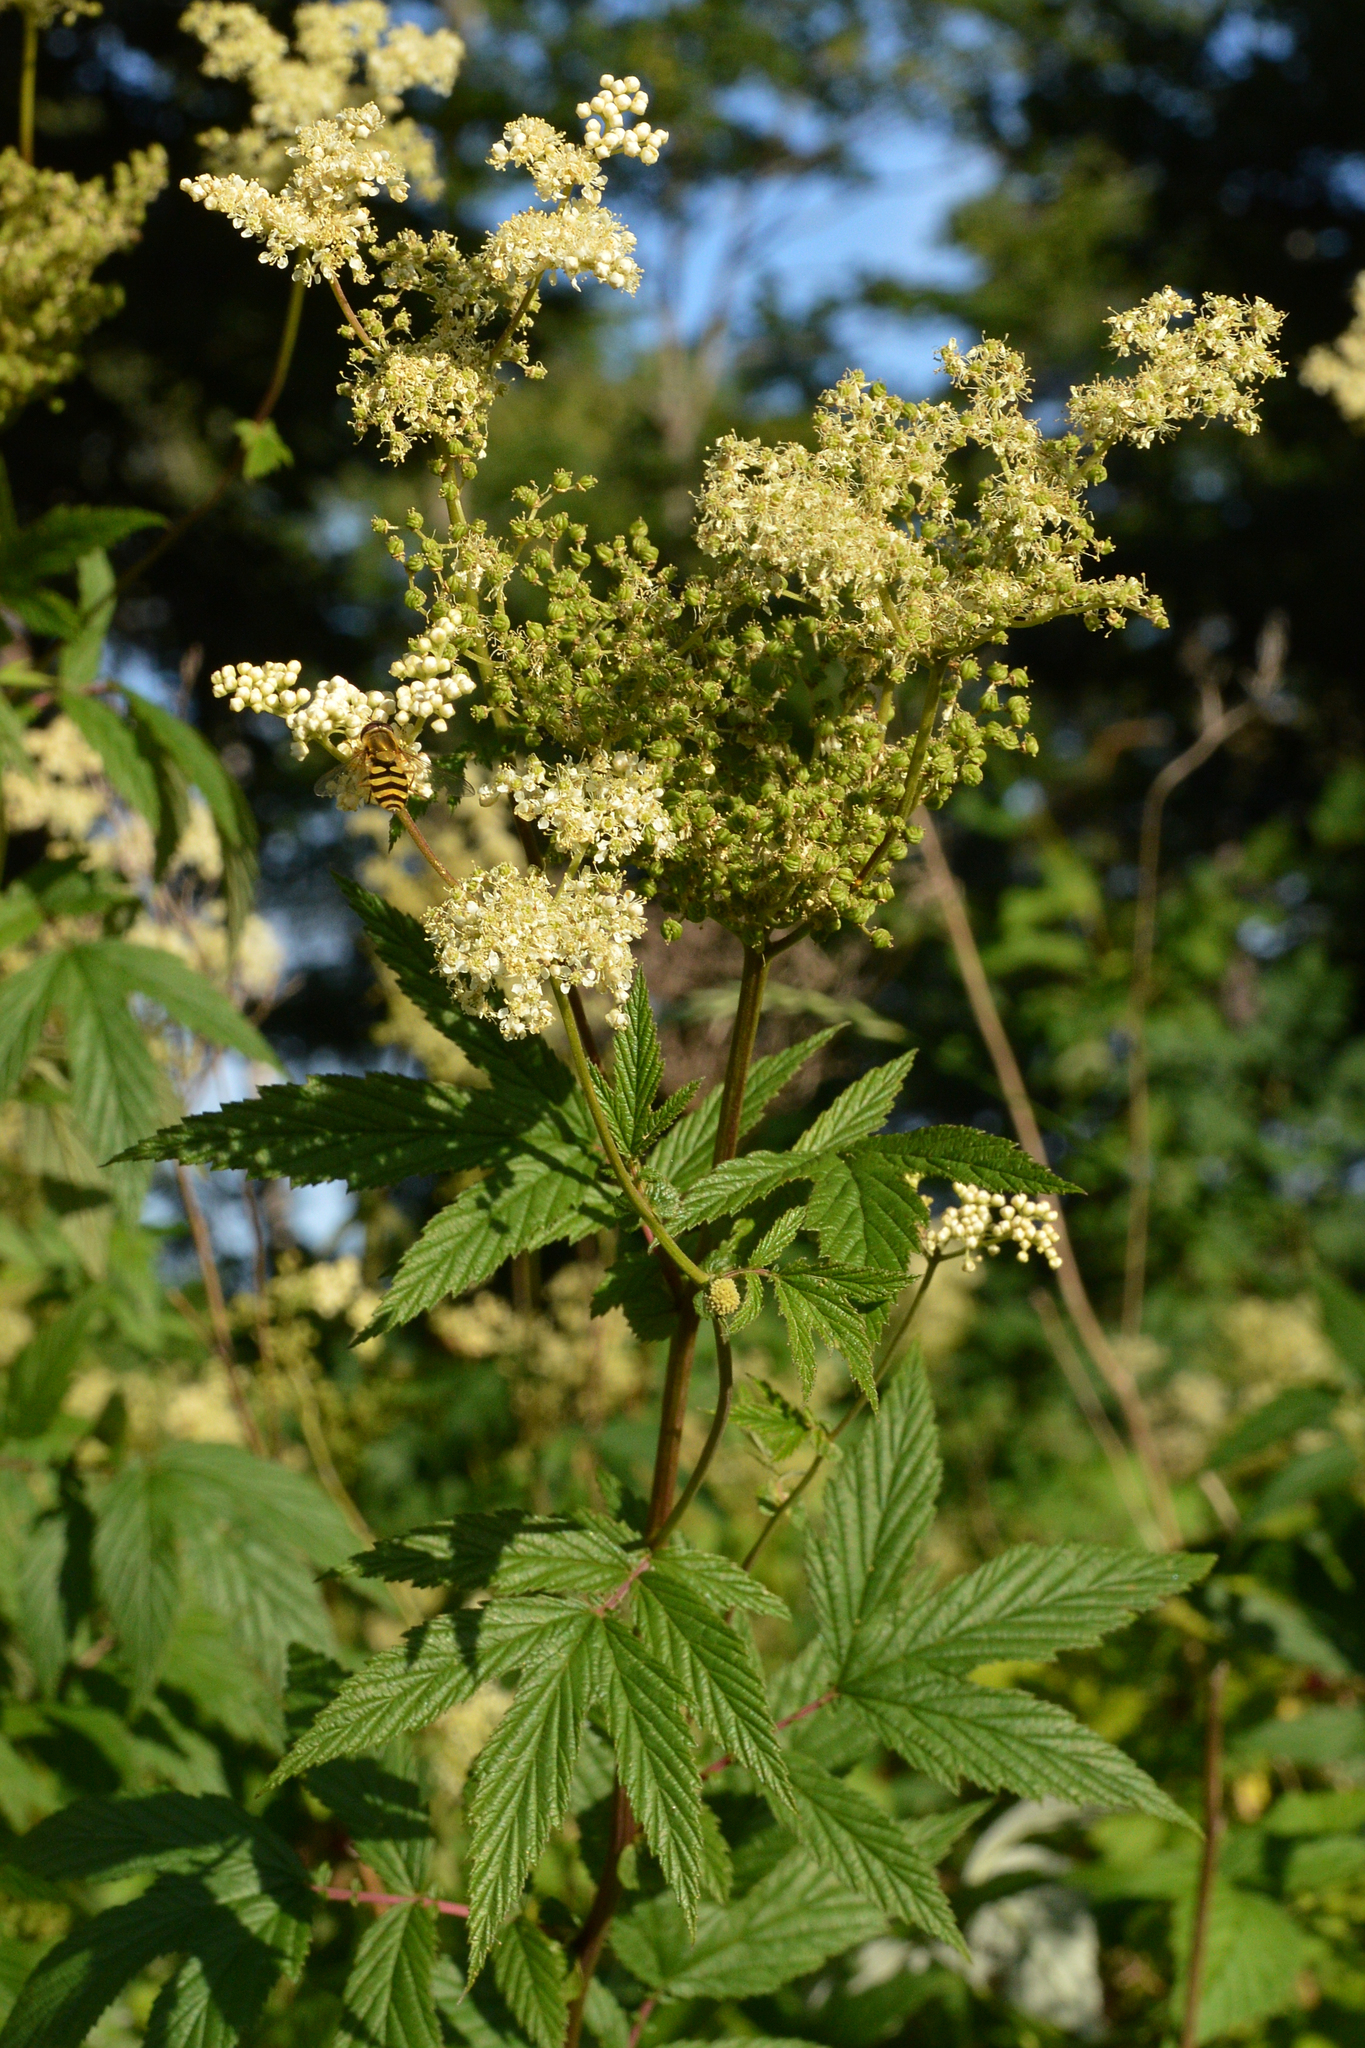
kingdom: Plantae
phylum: Tracheophyta
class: Magnoliopsida
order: Rosales
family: Rosaceae
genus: Filipendula
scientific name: Filipendula ulmaria
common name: Meadowsweet
